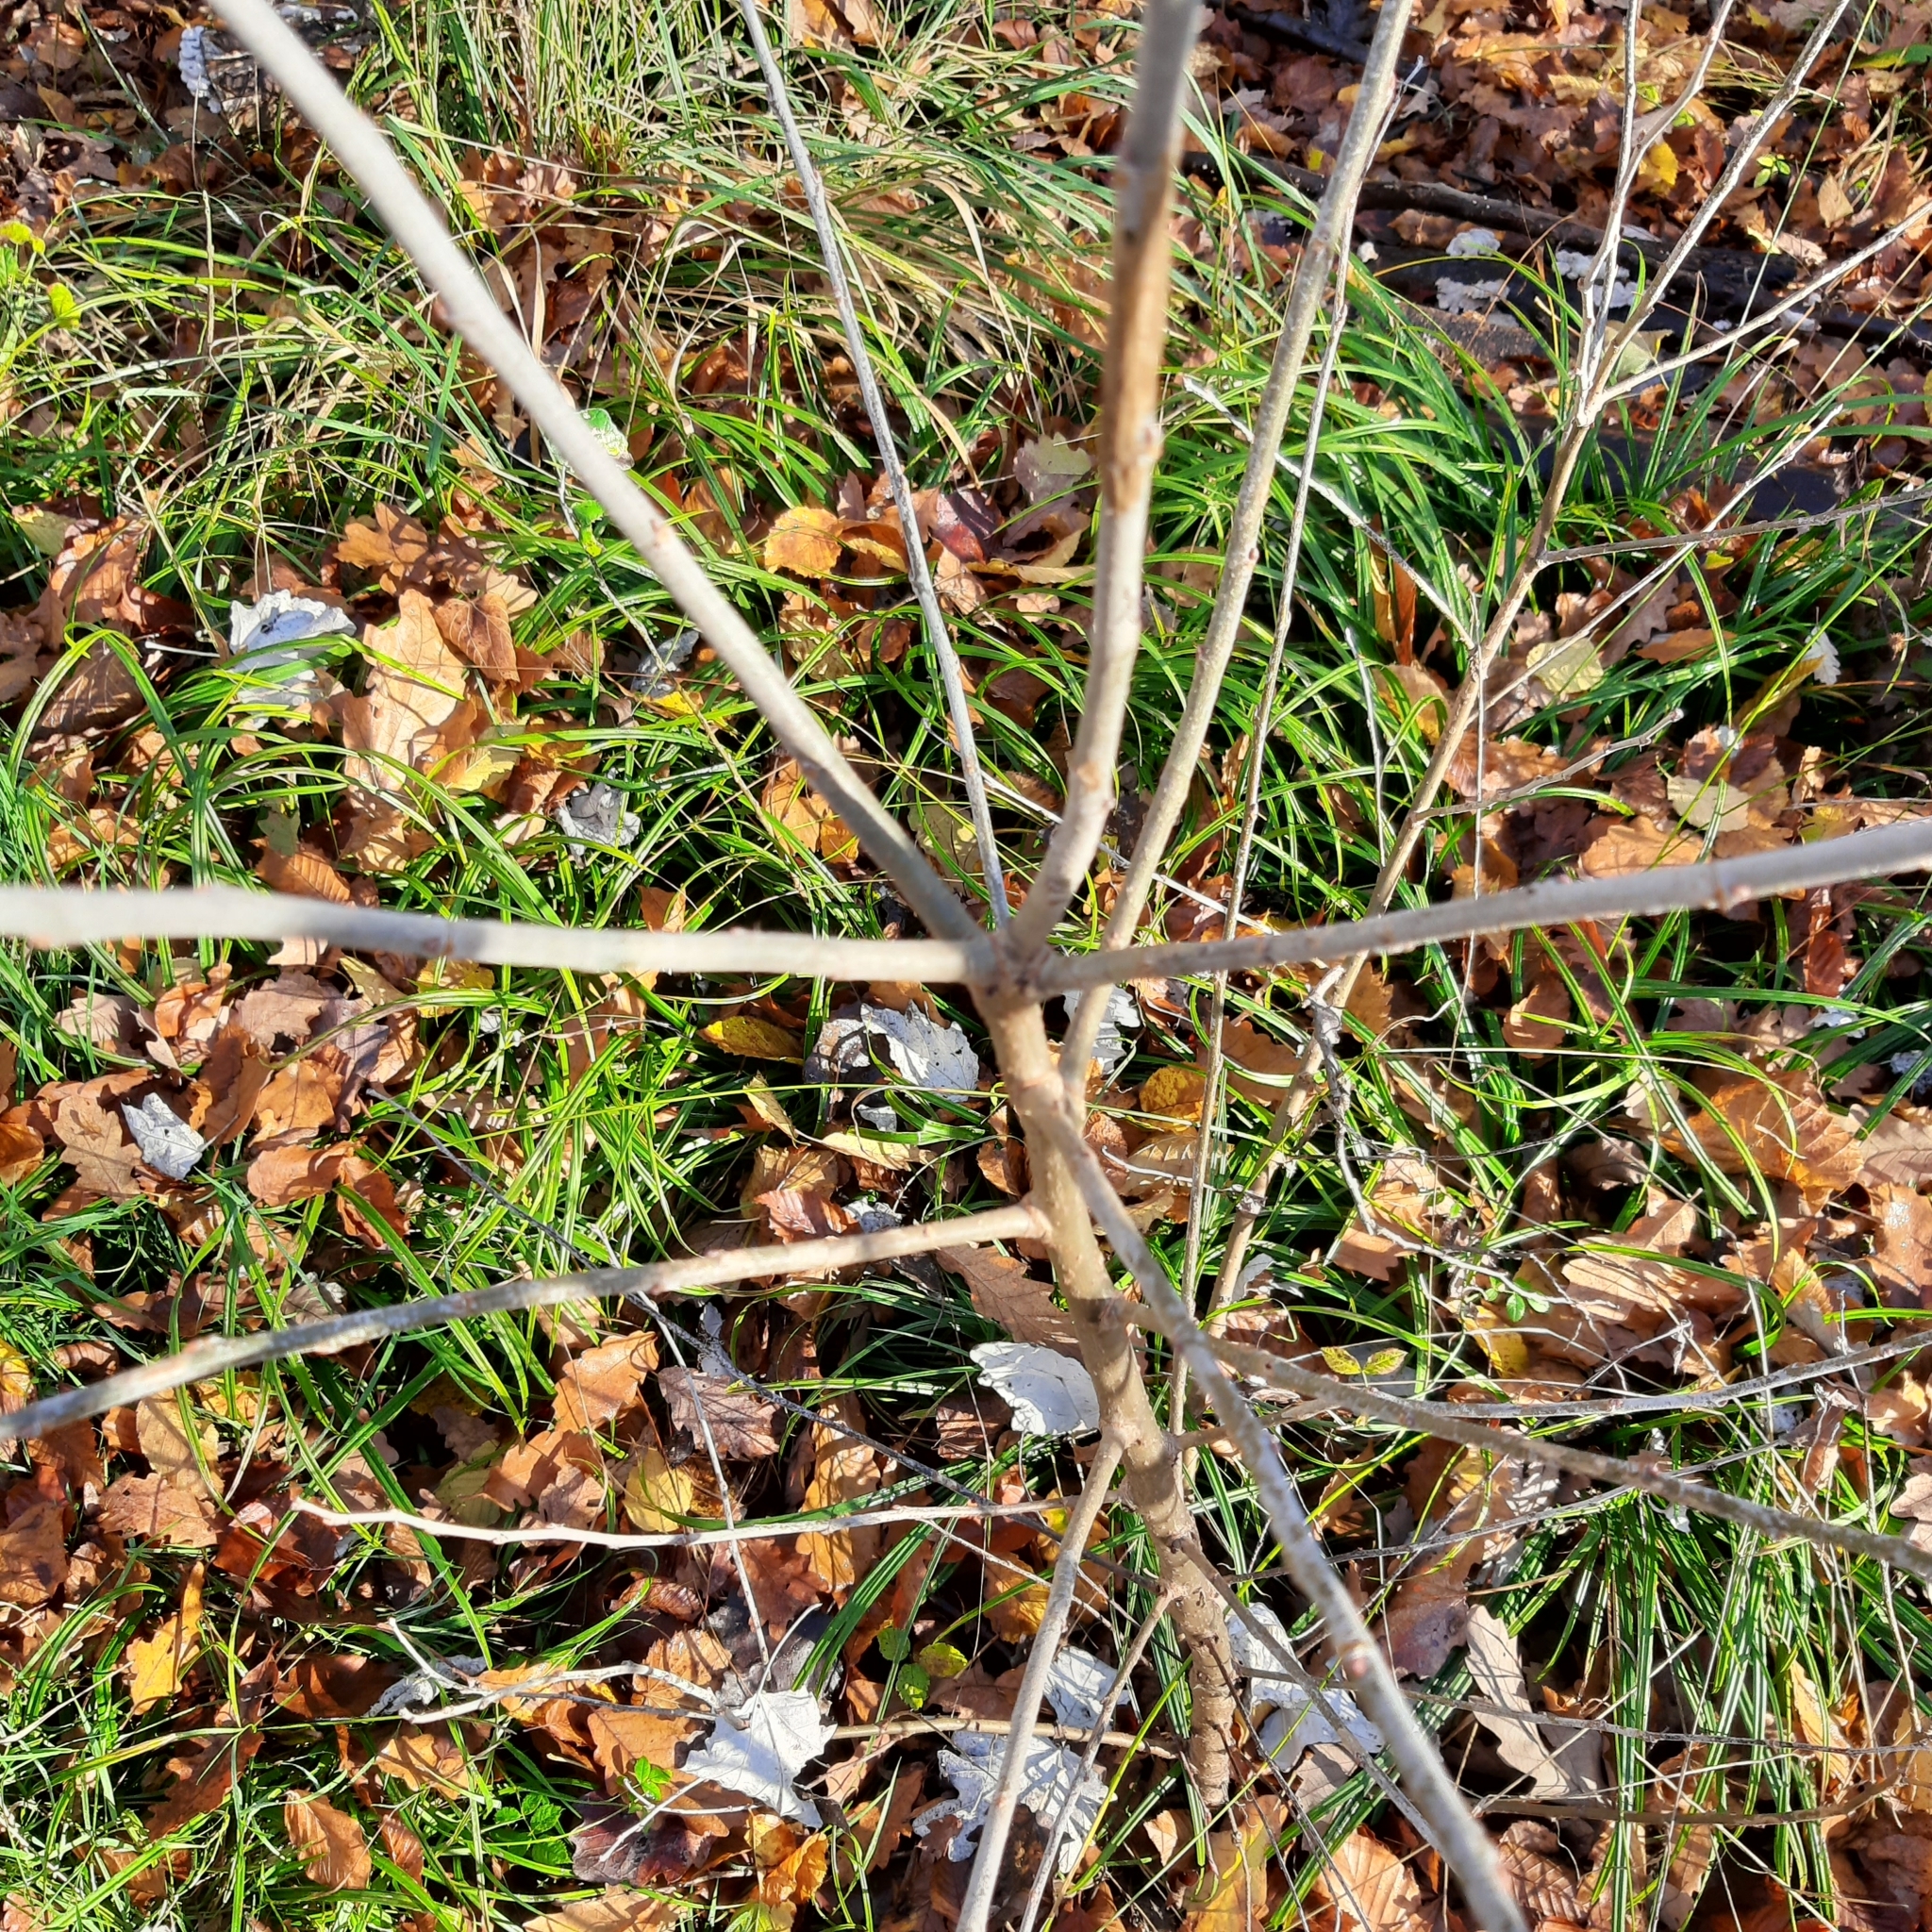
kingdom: Plantae
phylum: Tracheophyta
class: Magnoliopsida
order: Malpighiales
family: Salicaceae
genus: Populus
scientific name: Populus alba
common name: White poplar
